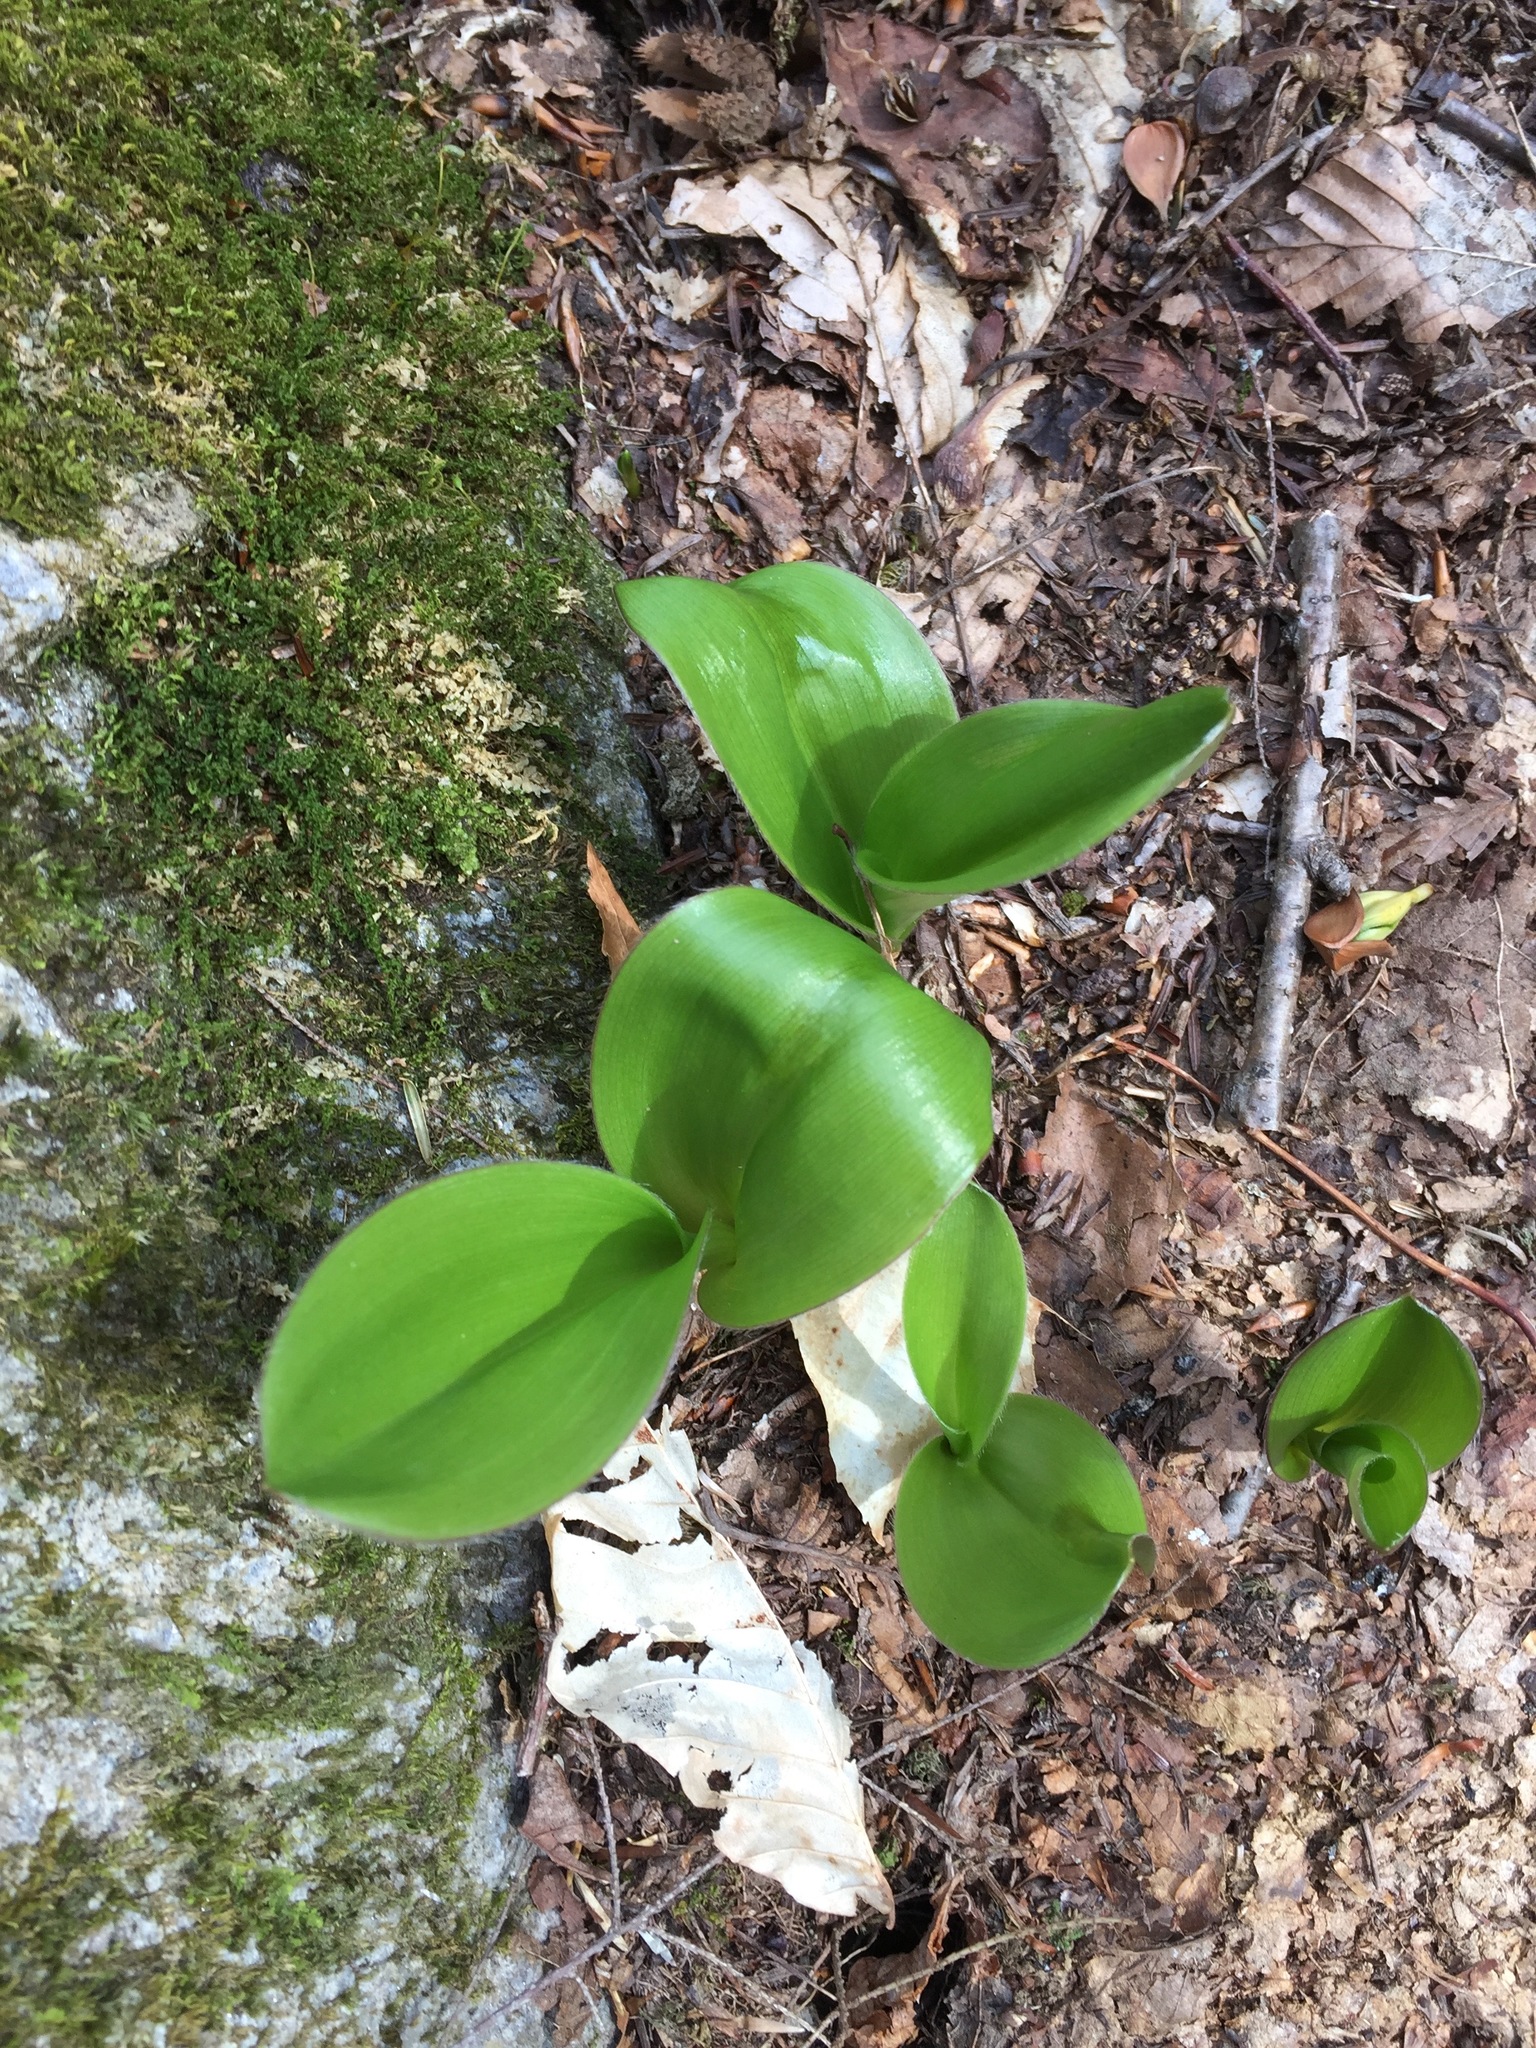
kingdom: Plantae
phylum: Tracheophyta
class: Liliopsida
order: Liliales
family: Liliaceae
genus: Clintonia
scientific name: Clintonia borealis
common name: Yellow clintonia
